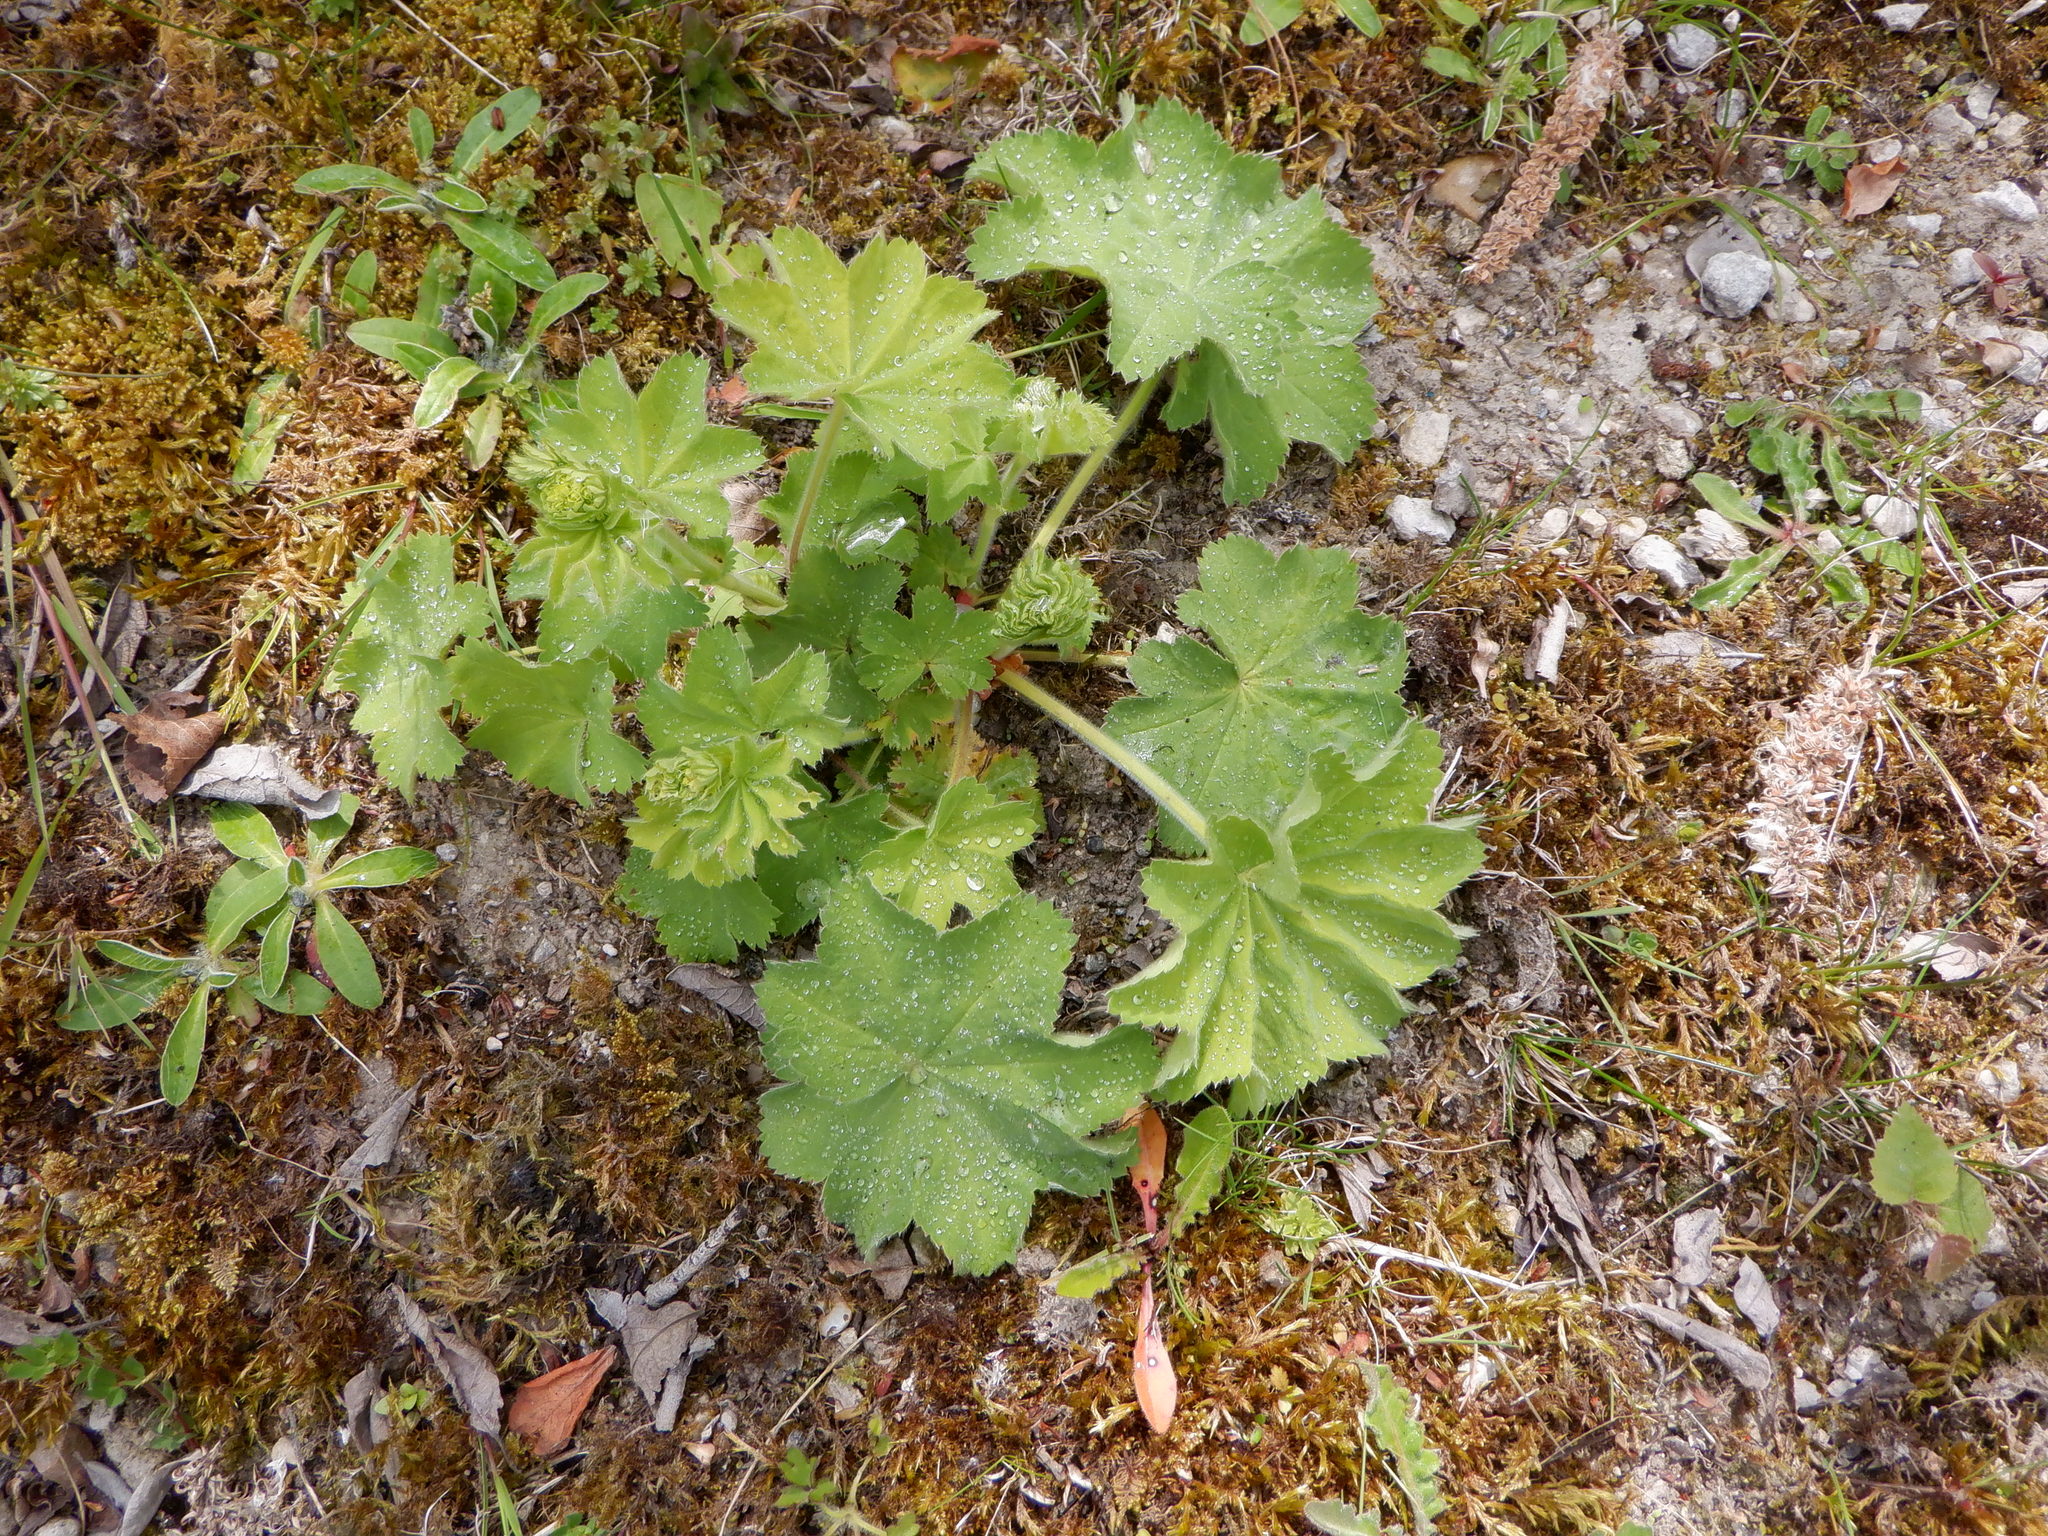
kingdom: Plantae
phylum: Tracheophyta
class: Magnoliopsida
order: Rosales
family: Rosaceae
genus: Alchemilla
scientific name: Alchemilla mollis
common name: Lady's-mantle
